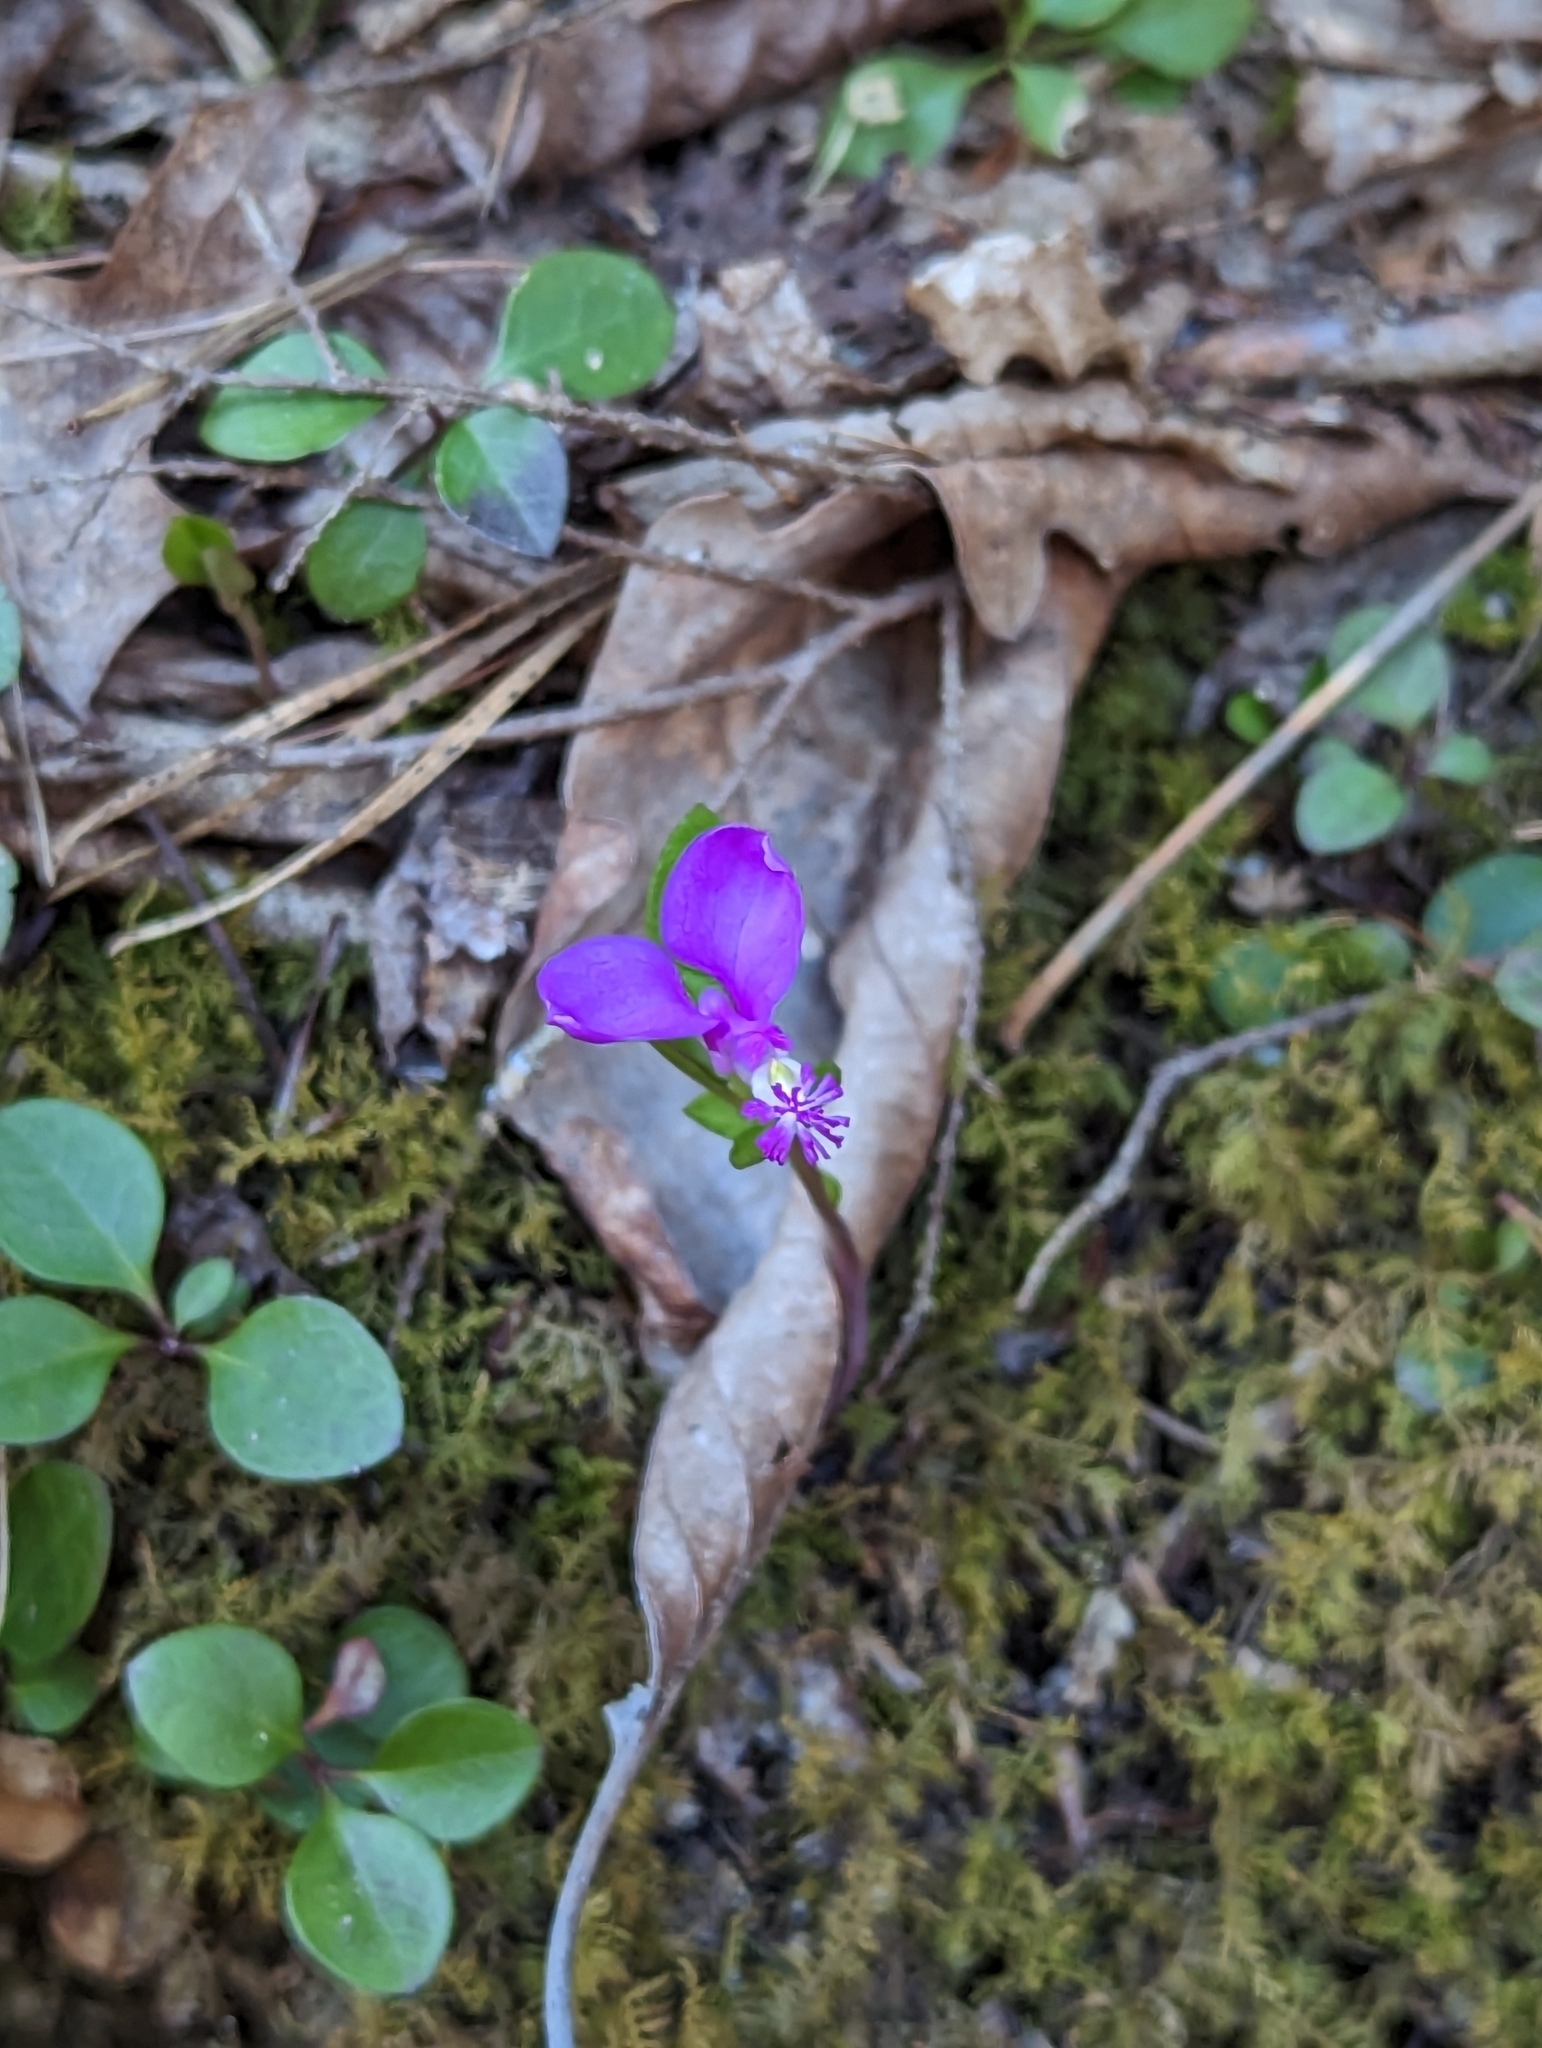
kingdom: Plantae
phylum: Tracheophyta
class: Magnoliopsida
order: Fabales
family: Polygalaceae
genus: Polygaloides
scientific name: Polygaloides paucifolia
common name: Bird-on-the-wing
